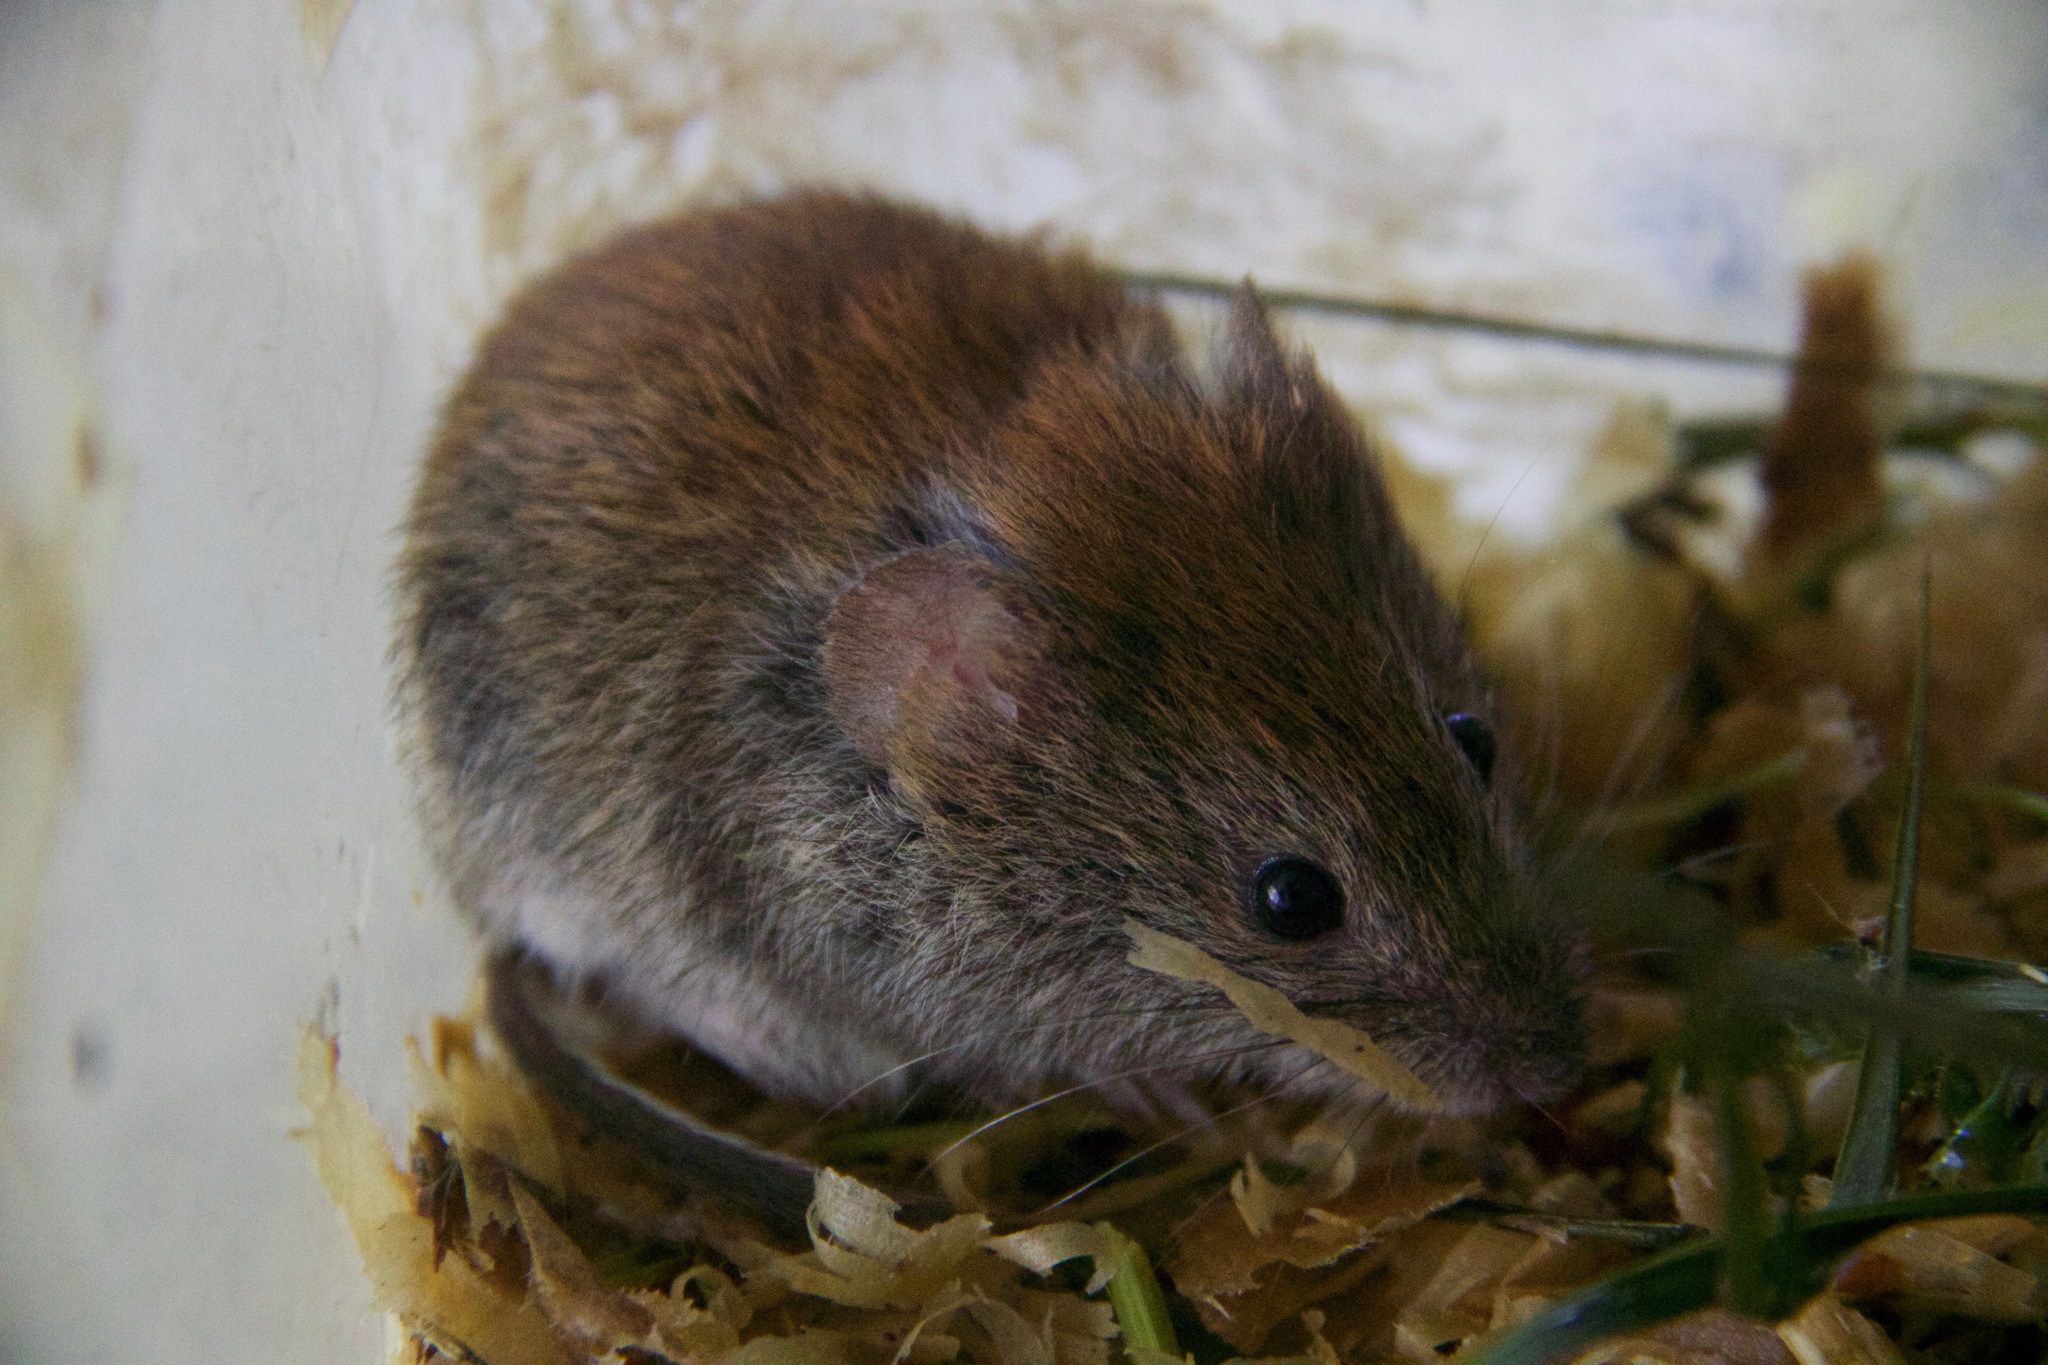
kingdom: Animalia
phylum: Chordata
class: Mammalia
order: Rodentia
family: Cricetidae
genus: Myodes
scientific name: Myodes glareolus
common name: Bank vole
